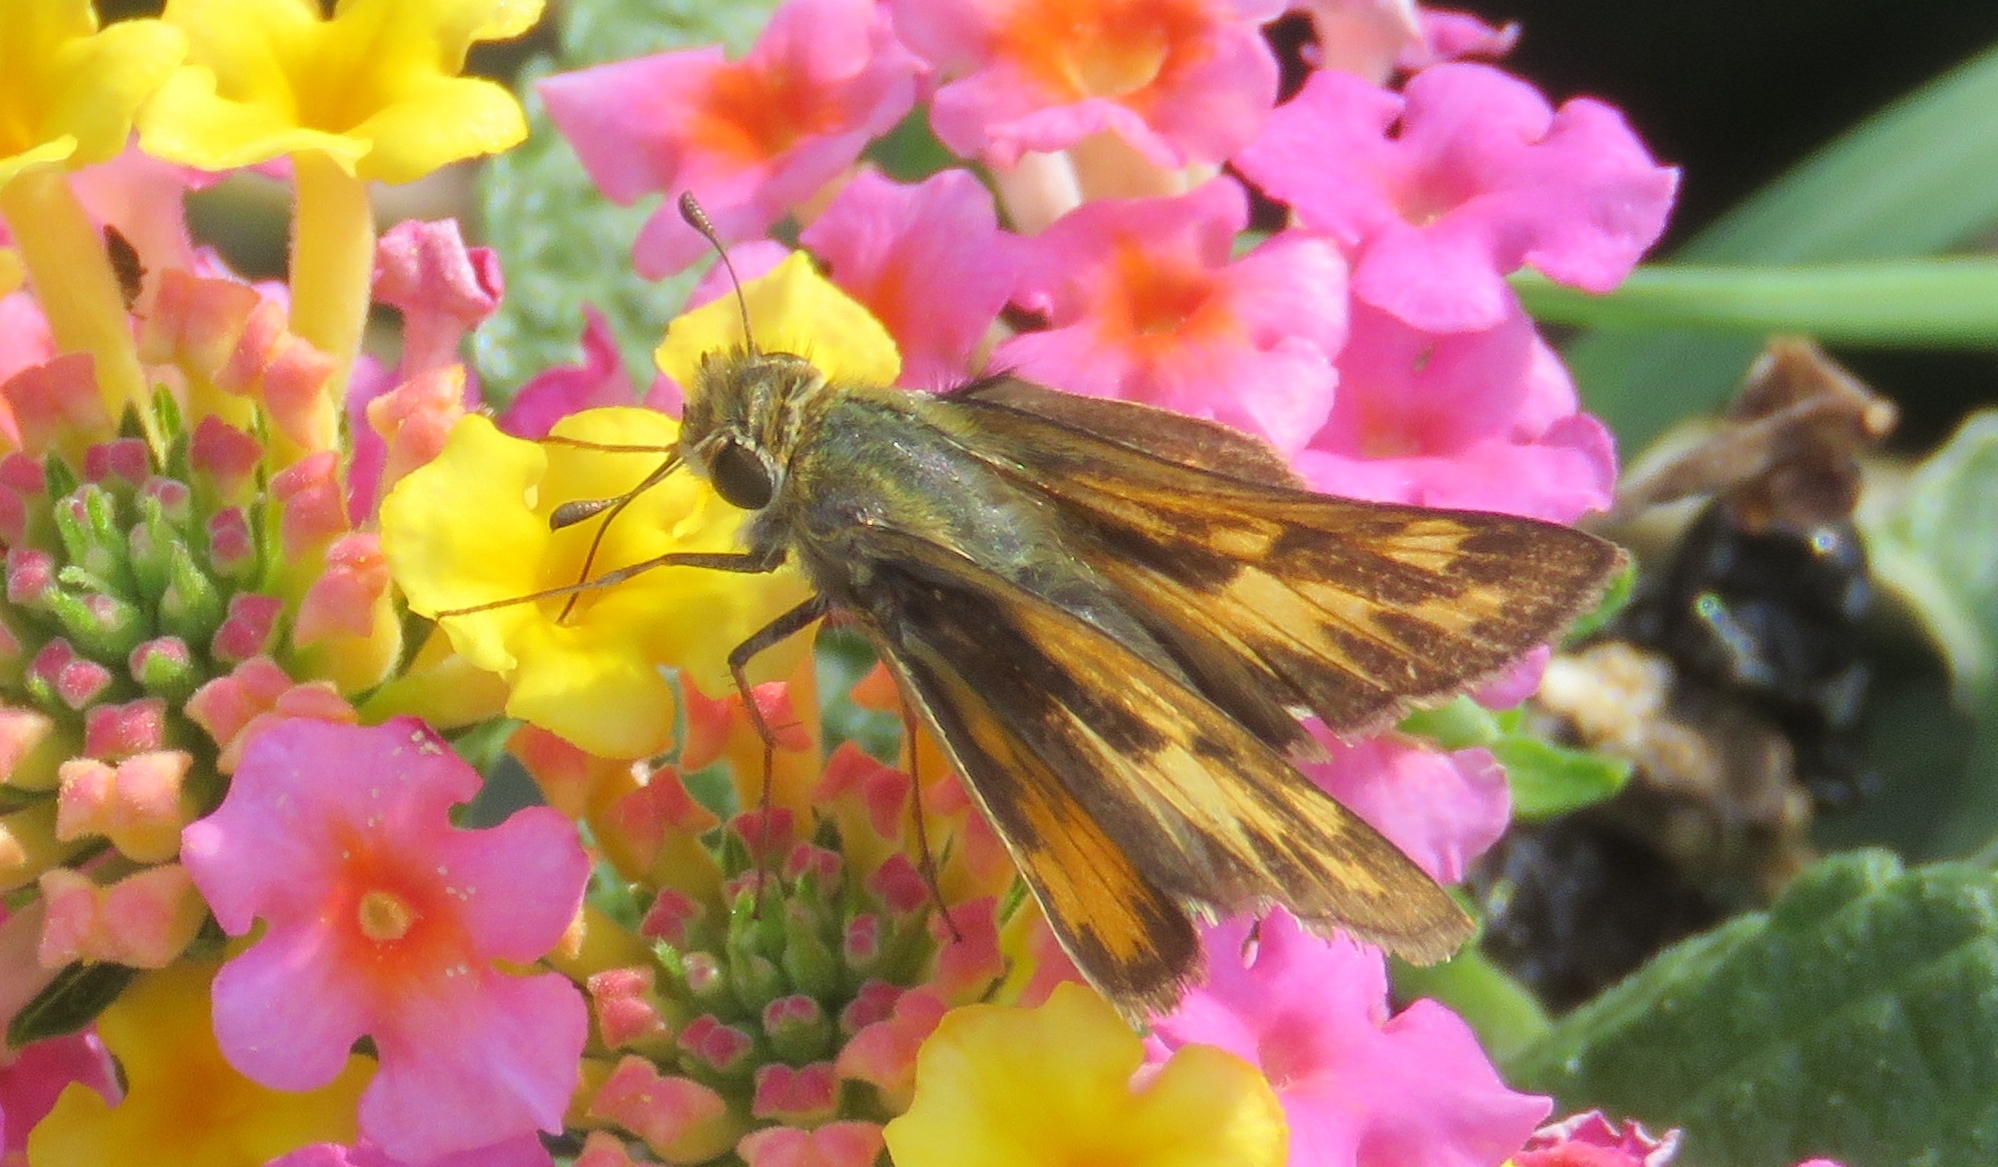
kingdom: Animalia
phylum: Arthropoda
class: Insecta
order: Lepidoptera
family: Hesperiidae
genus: Hylephila
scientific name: Hylephila phyleus
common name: Fiery skipper
